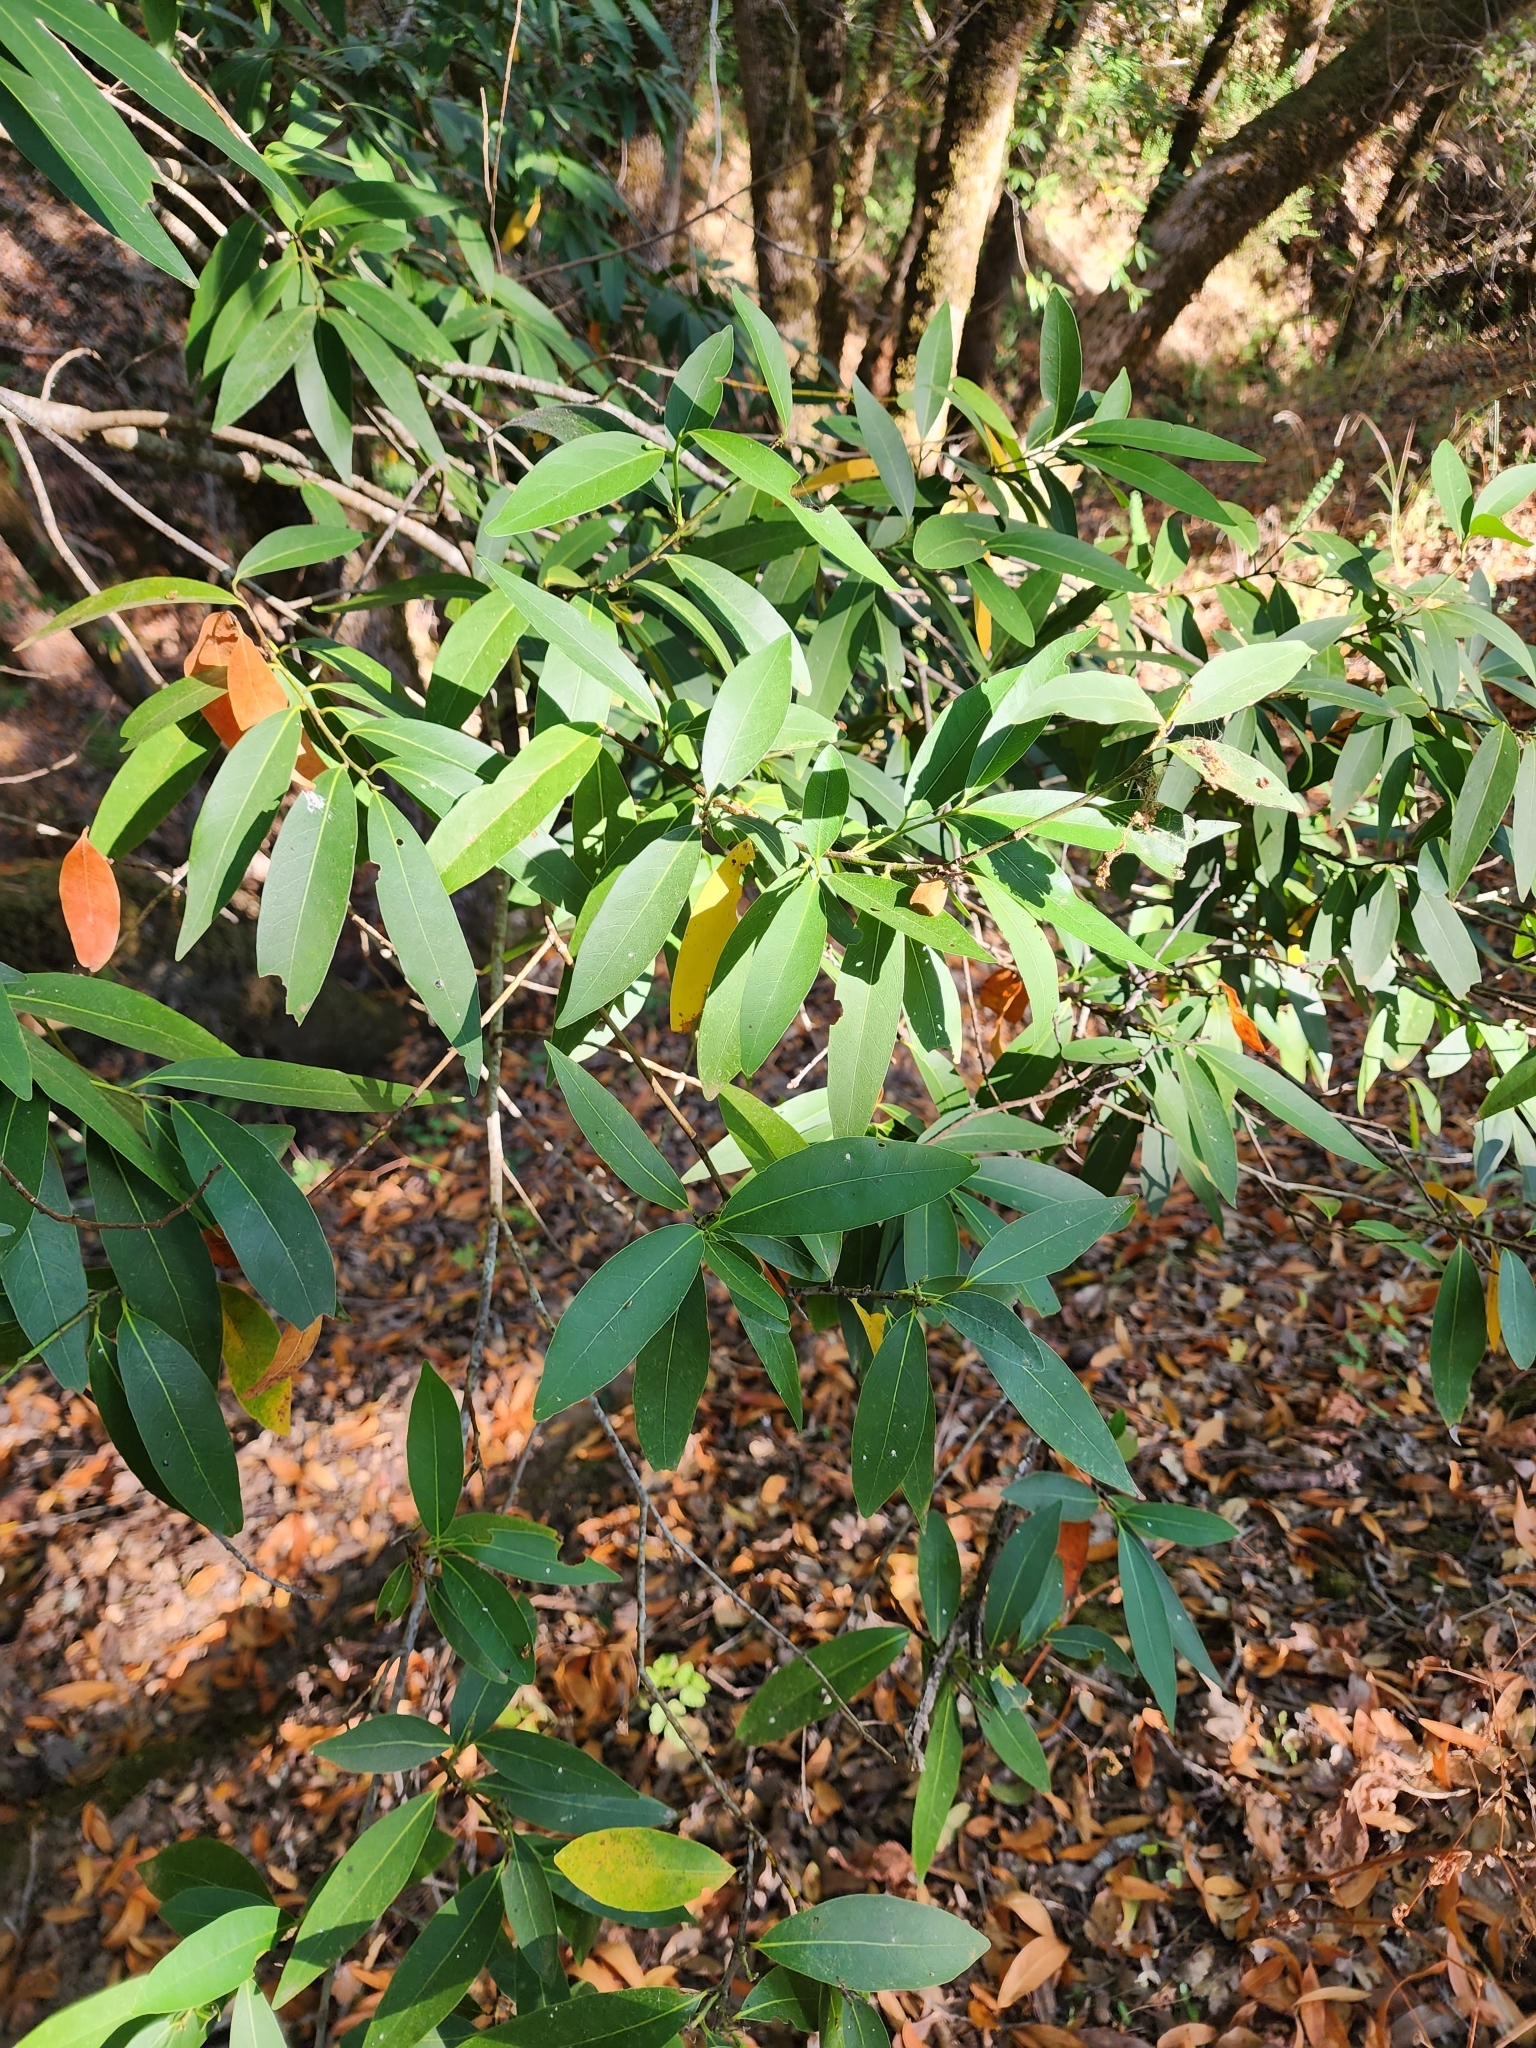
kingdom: Plantae
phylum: Tracheophyta
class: Magnoliopsida
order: Laurales
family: Lauraceae
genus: Umbellularia
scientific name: Umbellularia californica
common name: California bay
